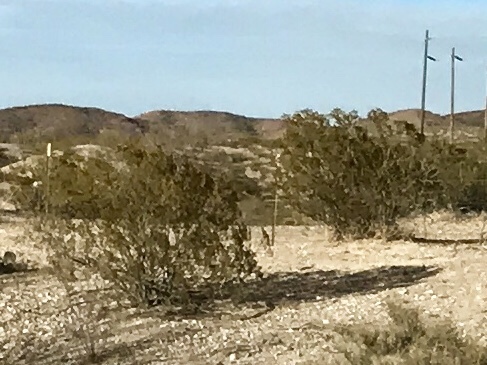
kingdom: Plantae
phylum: Tracheophyta
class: Magnoliopsida
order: Zygophyllales
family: Zygophyllaceae
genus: Larrea
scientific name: Larrea tridentata
